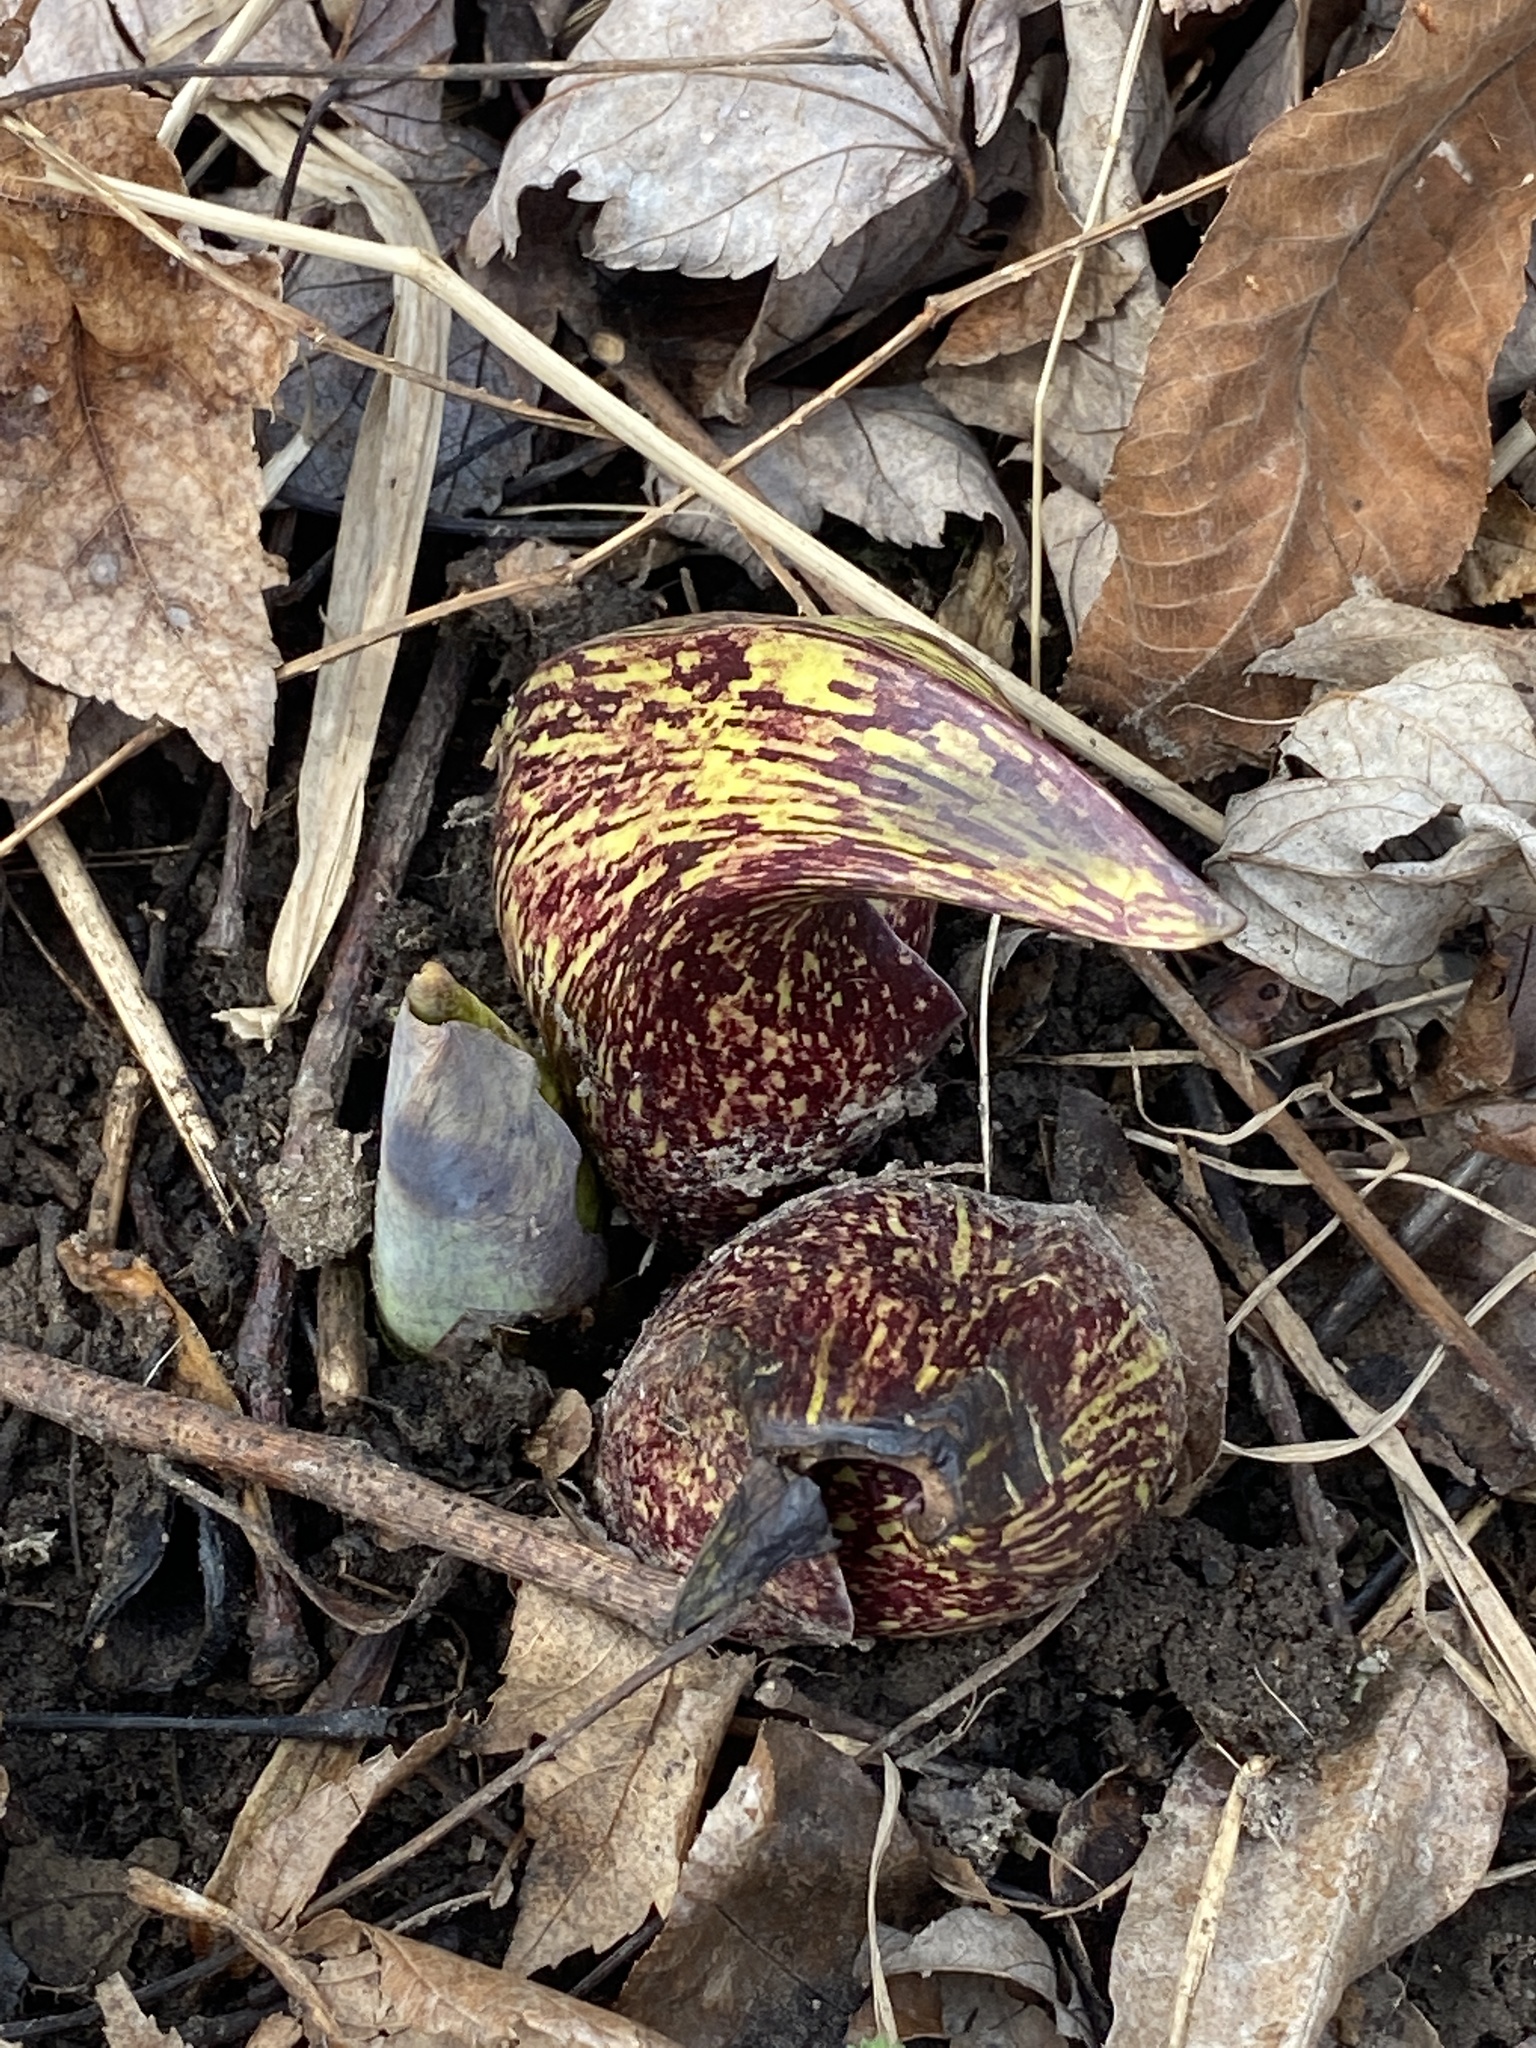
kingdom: Plantae
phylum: Tracheophyta
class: Liliopsida
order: Alismatales
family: Araceae
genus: Symplocarpus
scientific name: Symplocarpus foetidus
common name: Eastern skunk cabbage
